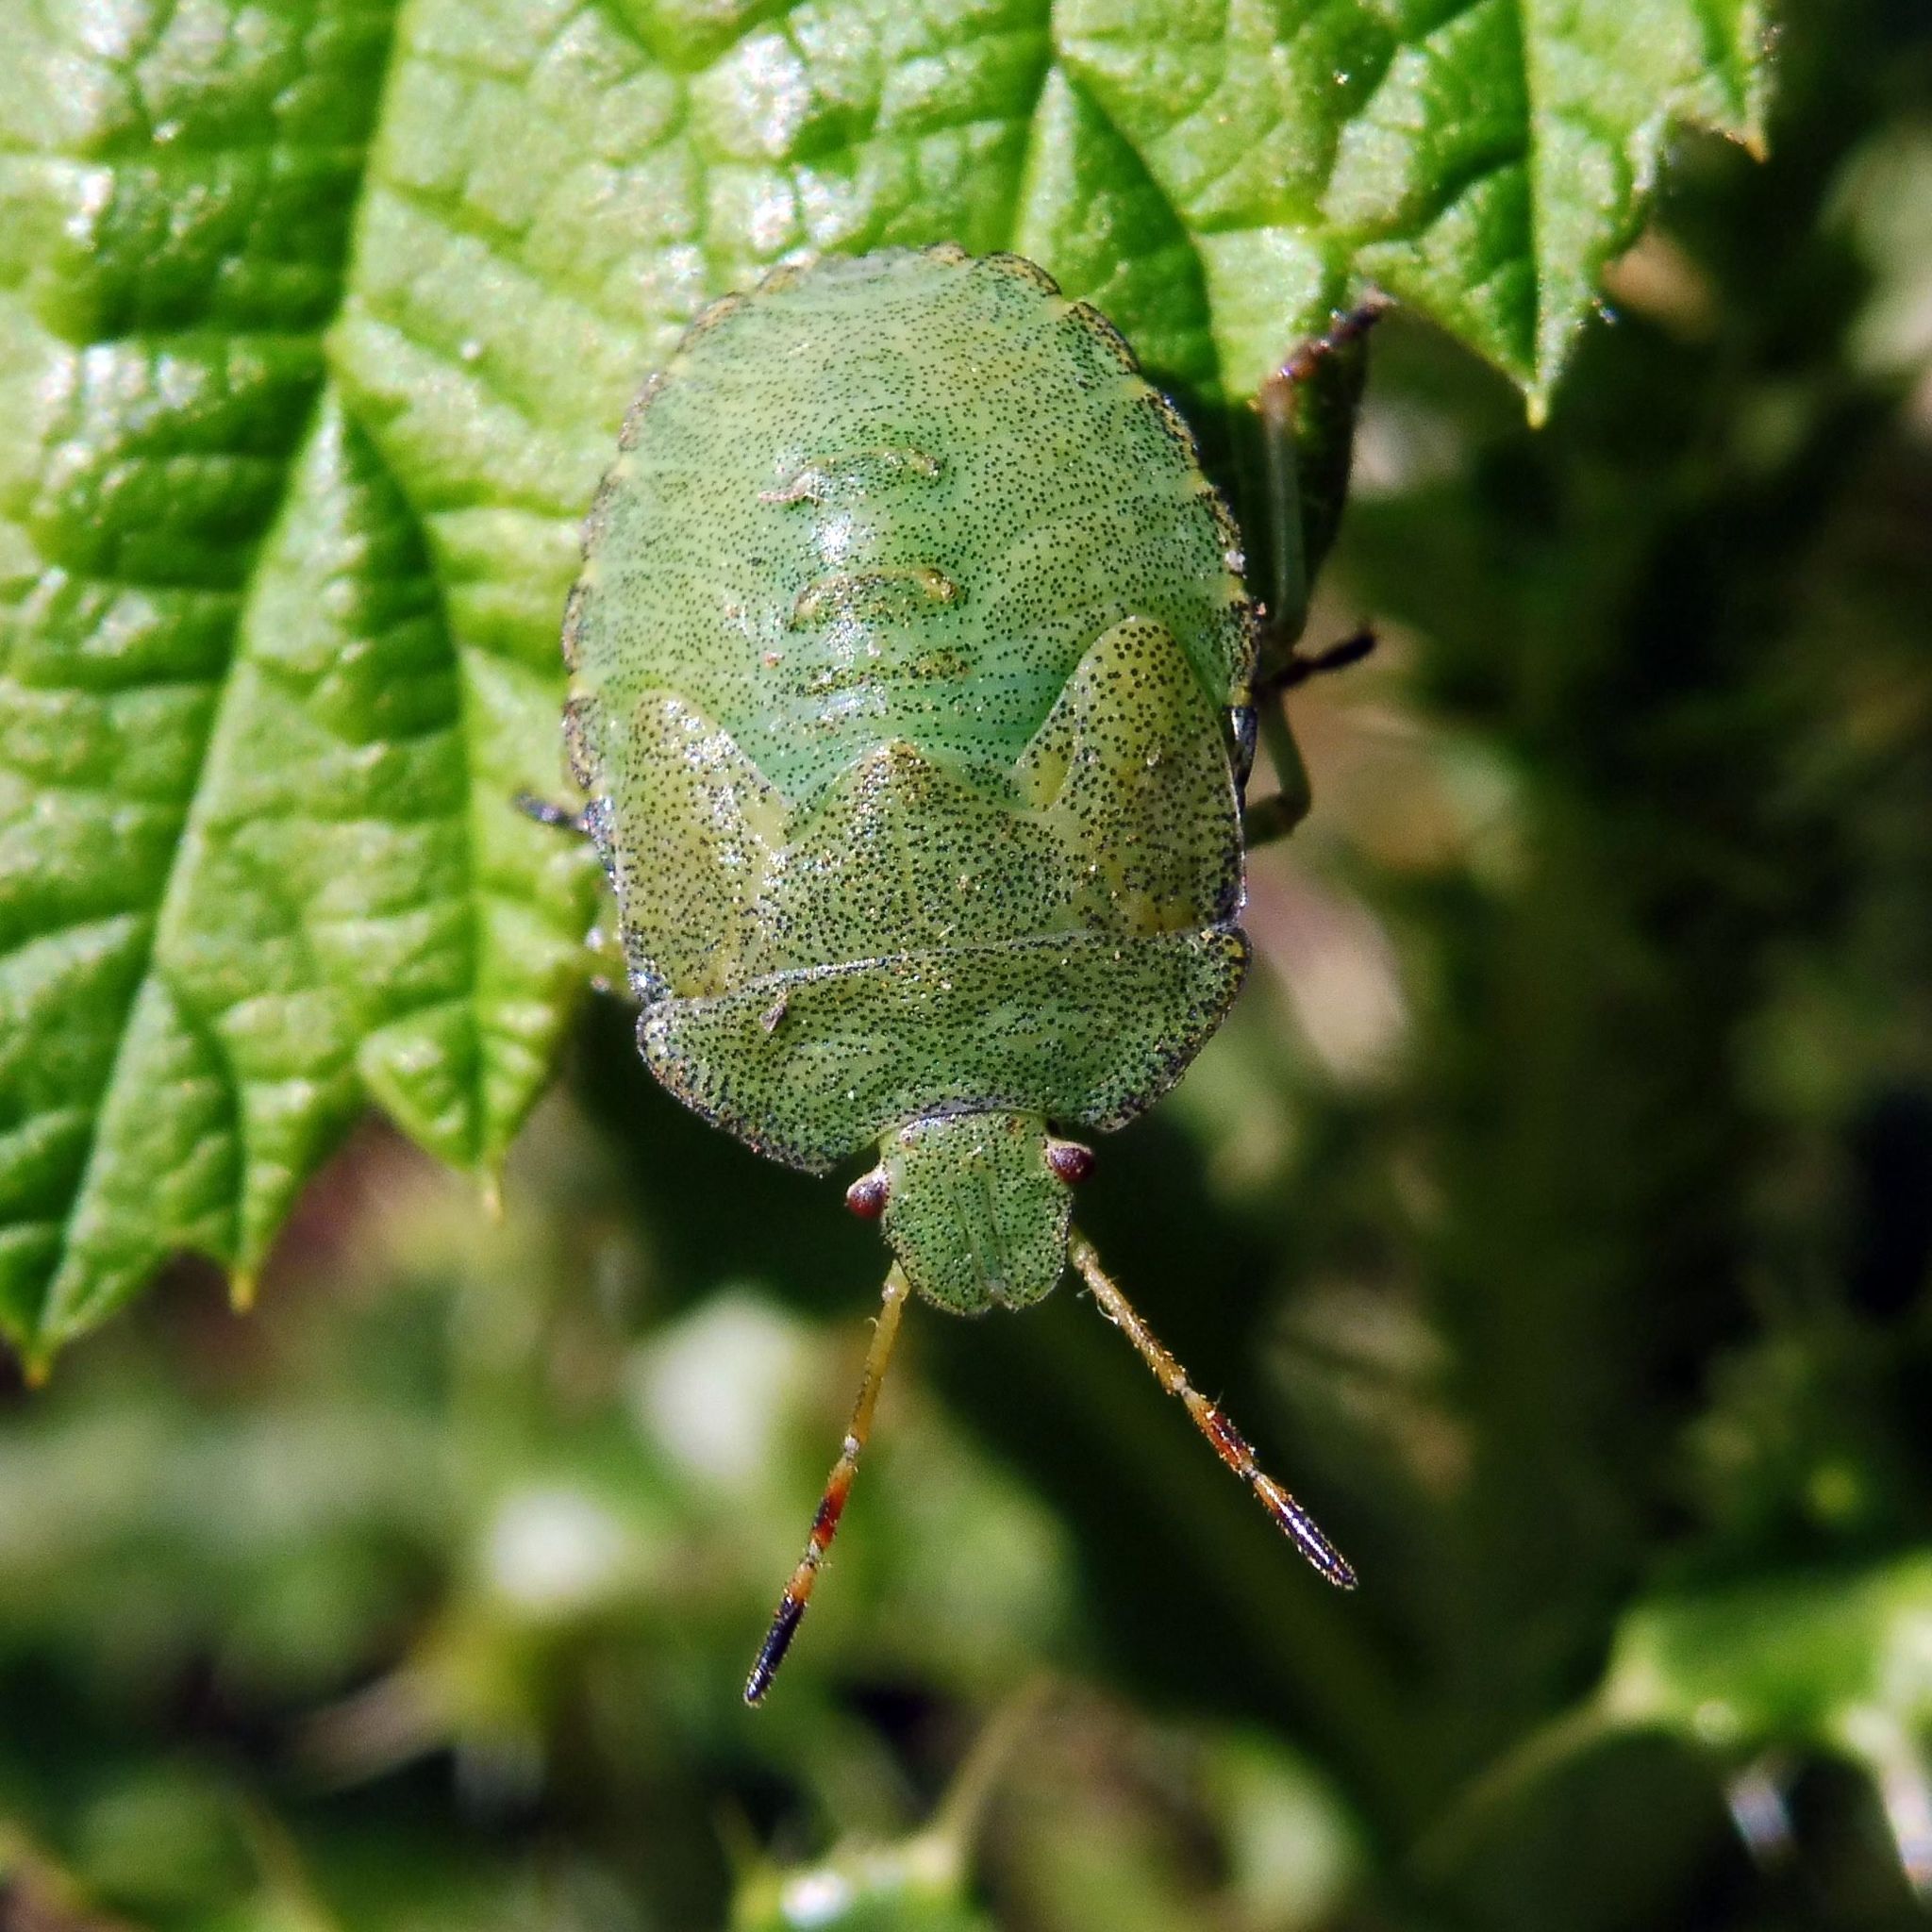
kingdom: Animalia
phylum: Arthropoda
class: Insecta
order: Hemiptera
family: Pentatomidae
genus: Palomena
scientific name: Palomena prasina
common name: Green shieldbug
